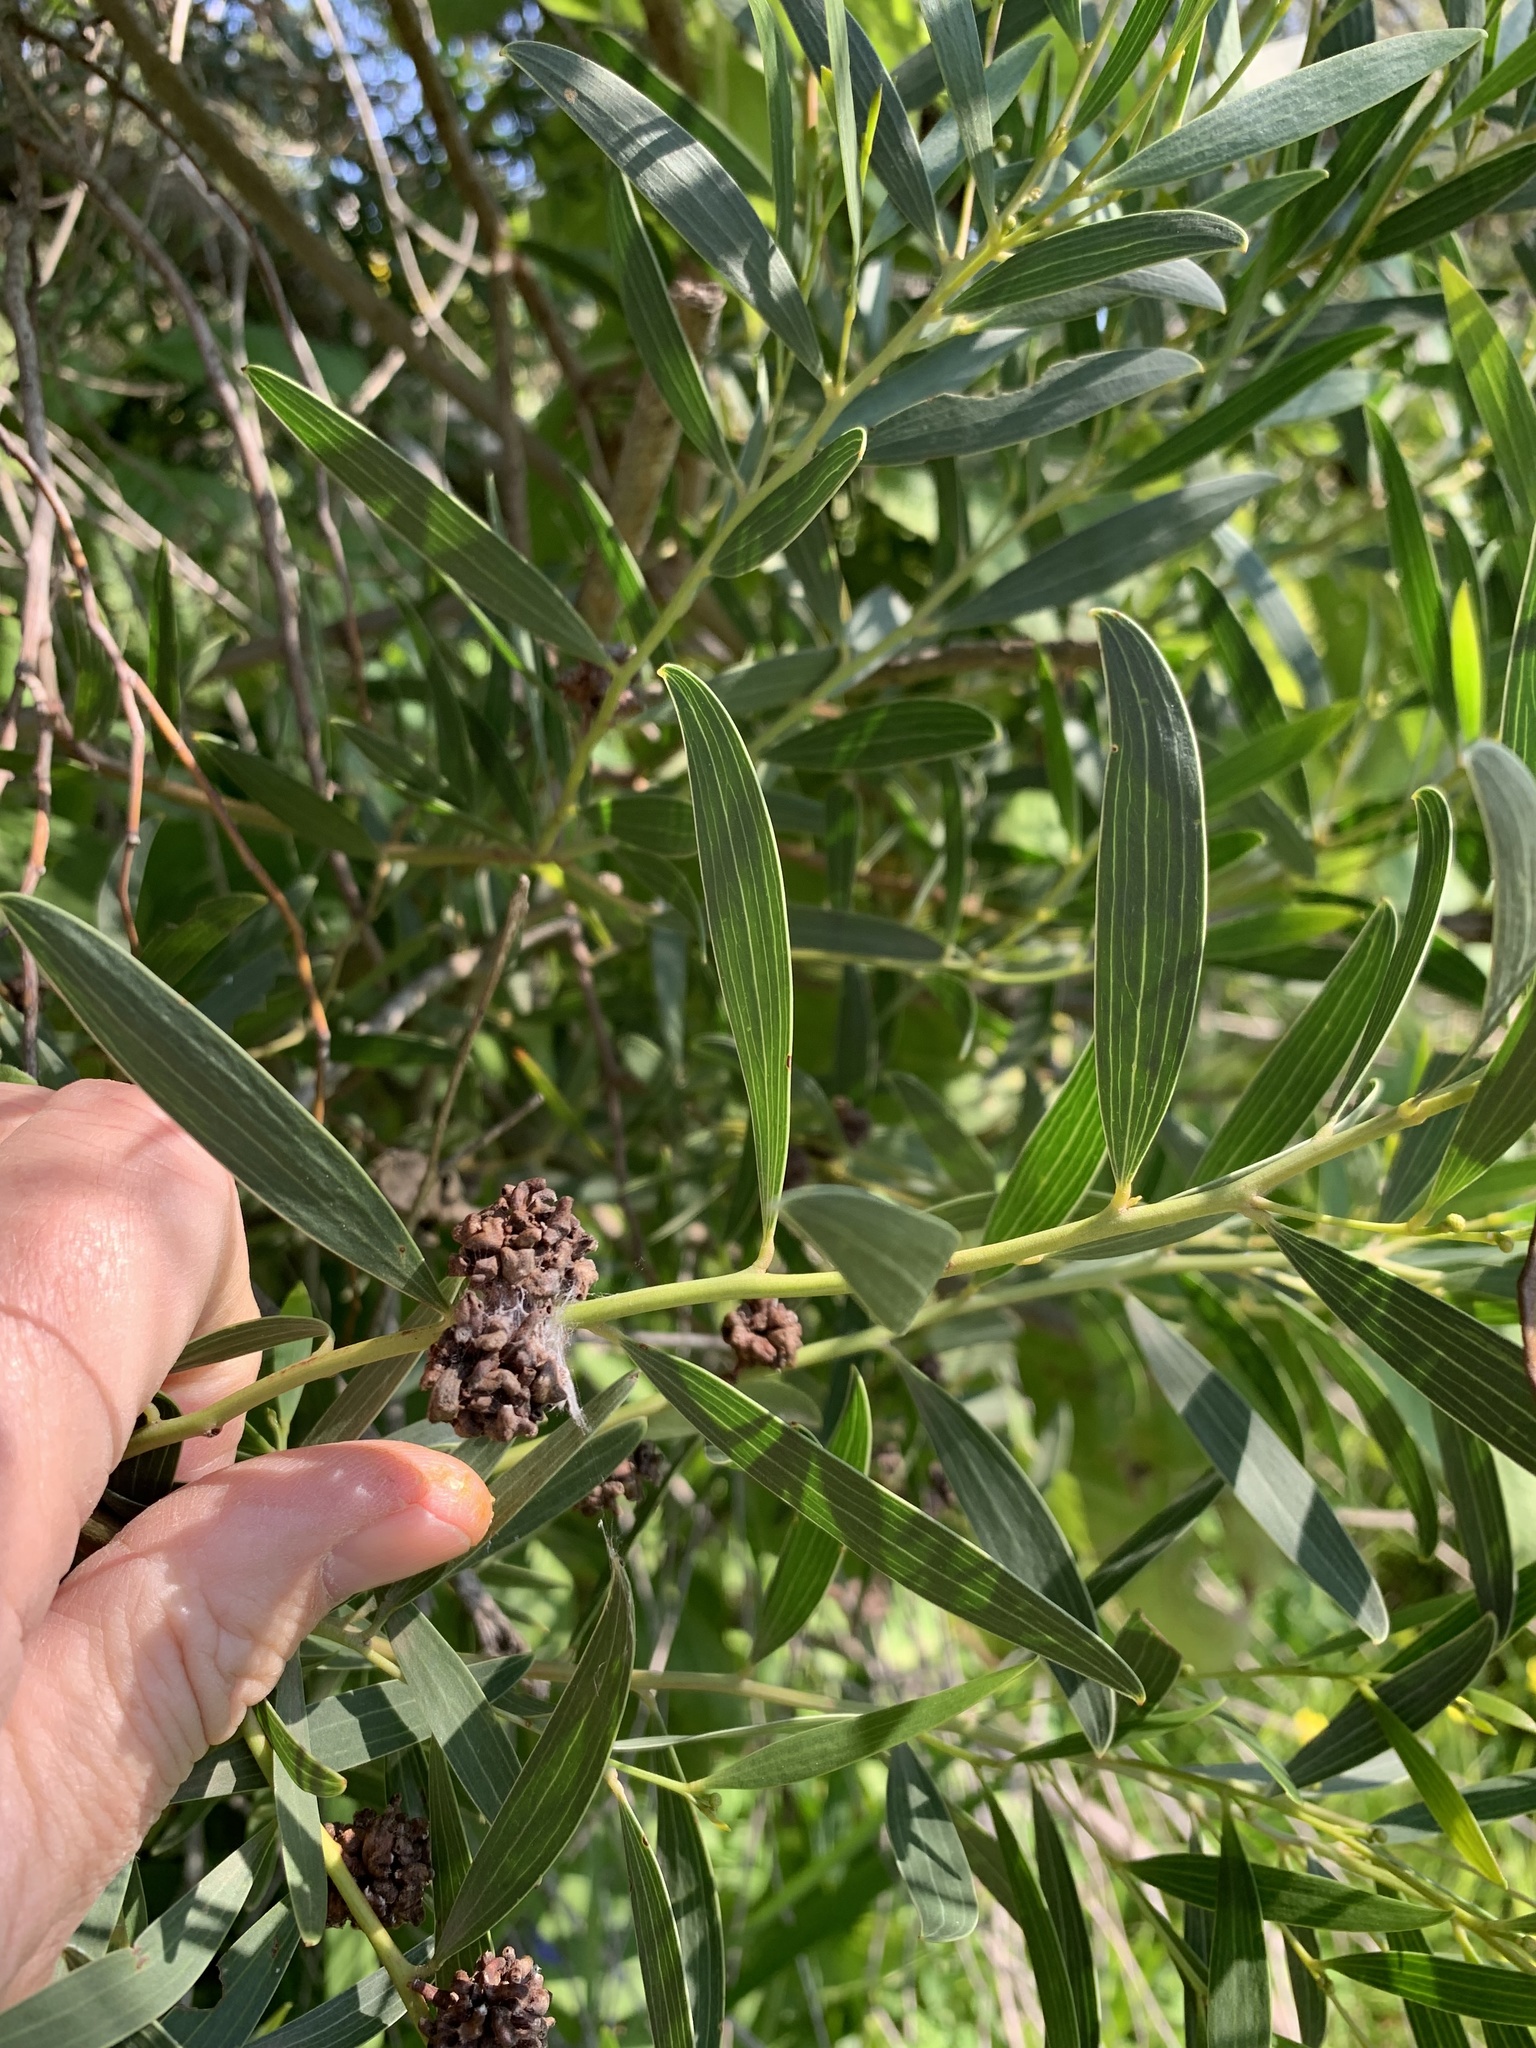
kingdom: Animalia
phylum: Arthropoda
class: Insecta
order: Diptera
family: Cecidomyiidae
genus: Dasineura
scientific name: Dasineura dielsi
